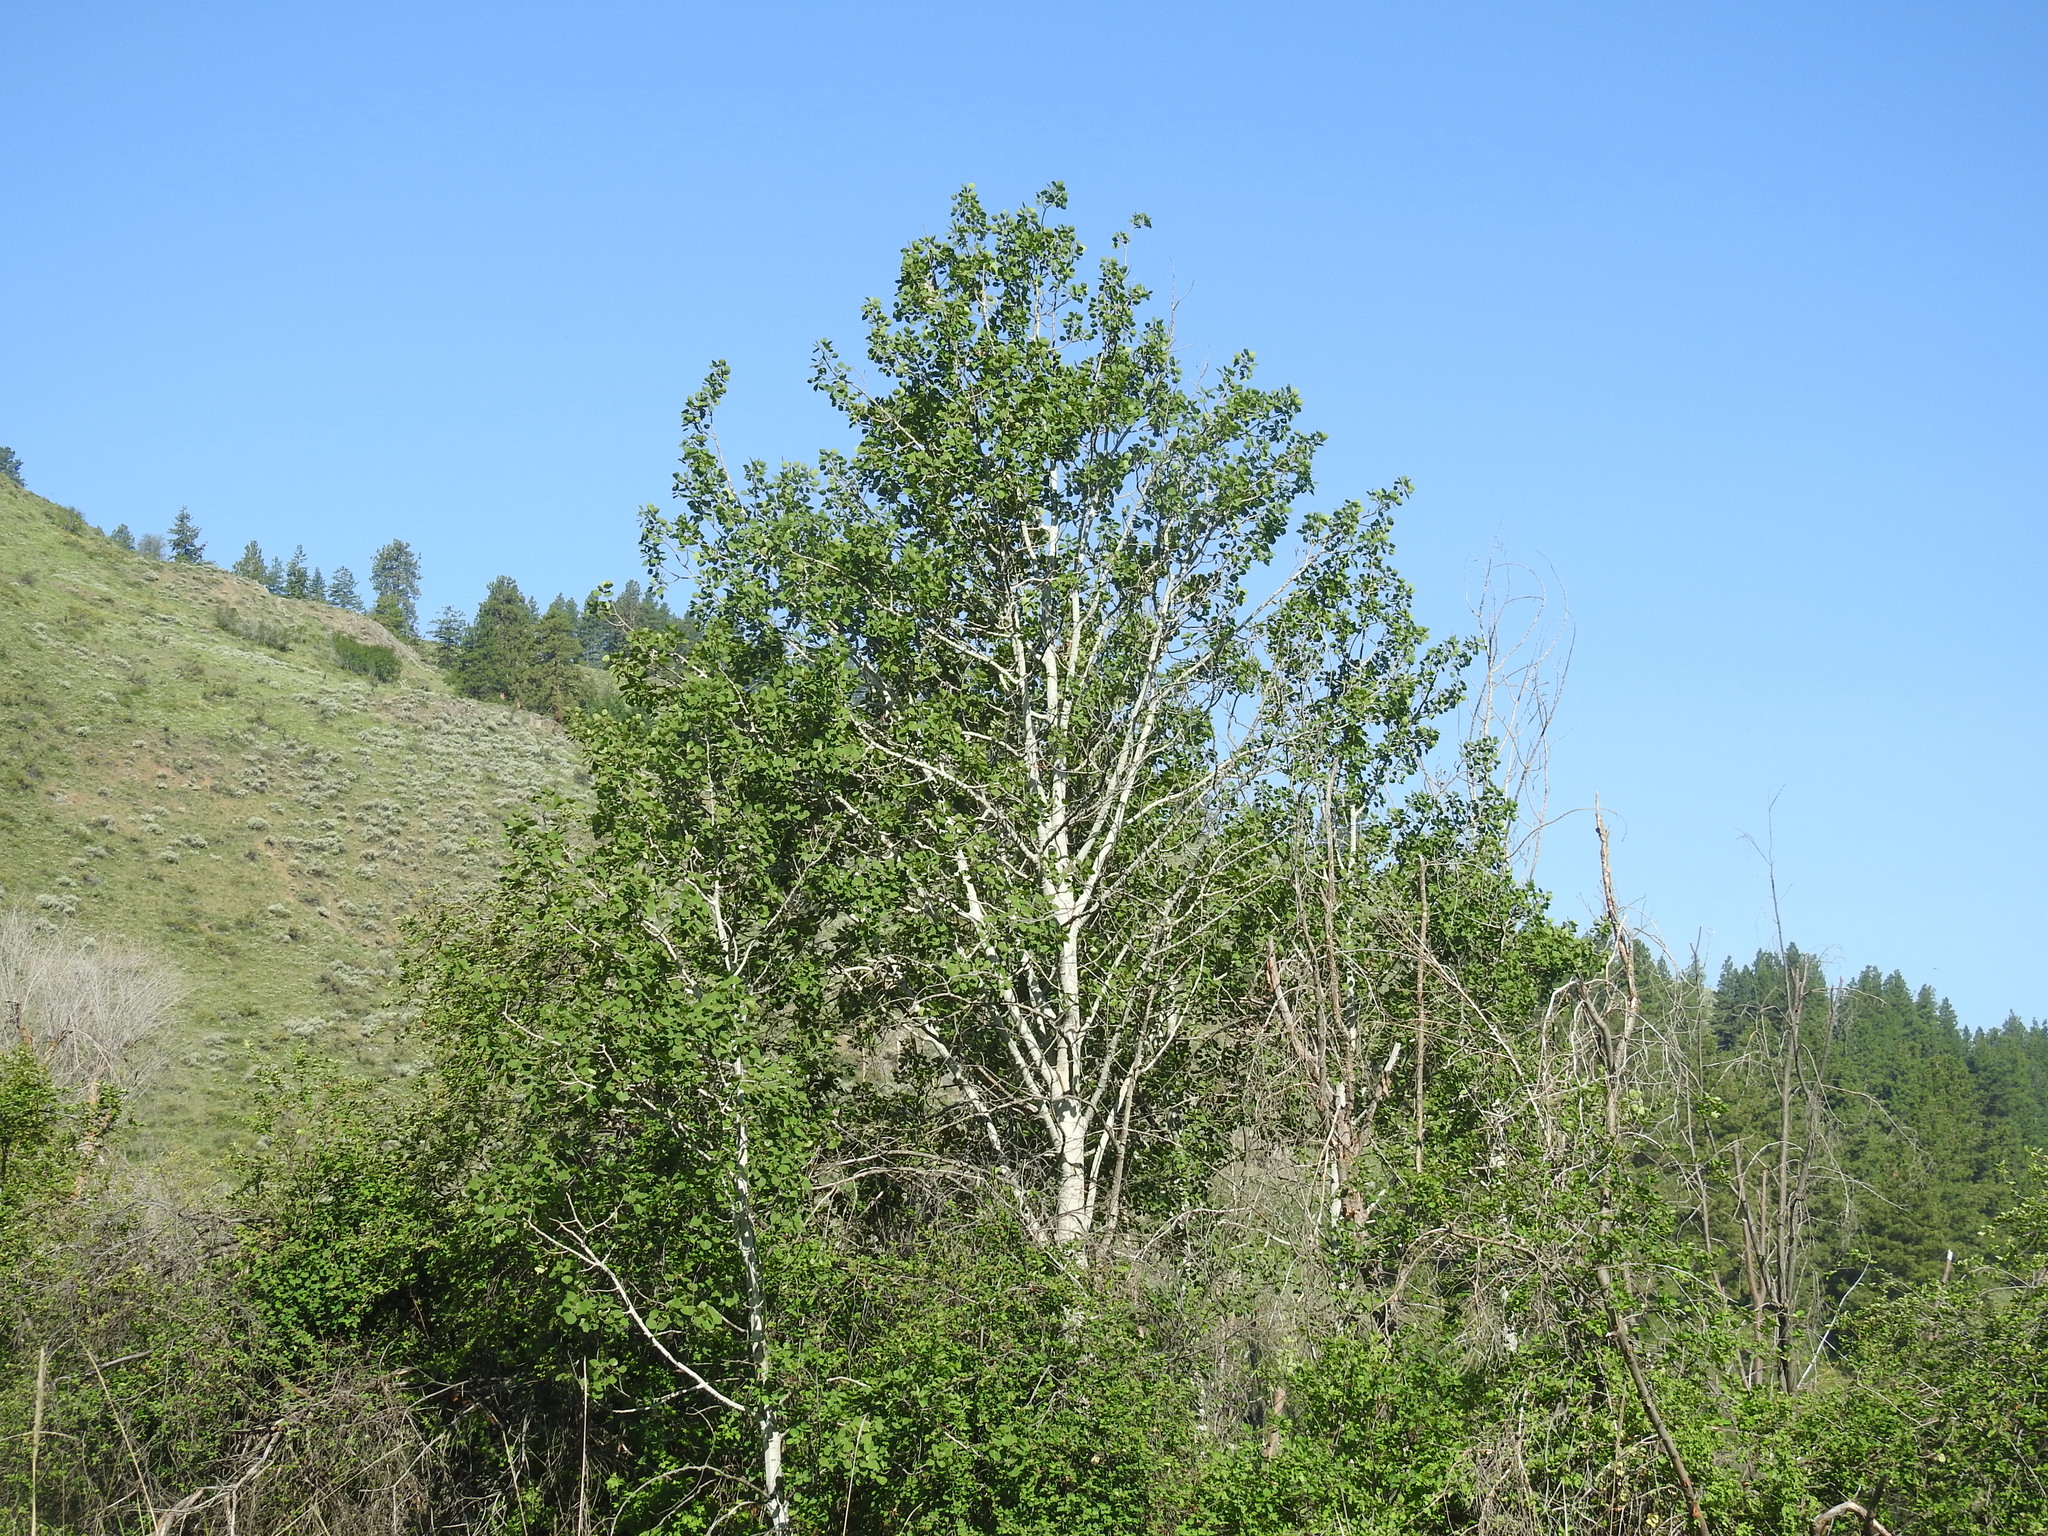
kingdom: Plantae
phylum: Tracheophyta
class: Magnoliopsida
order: Malpighiales
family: Salicaceae
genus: Populus
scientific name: Populus tremuloides
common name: Quaking aspen
